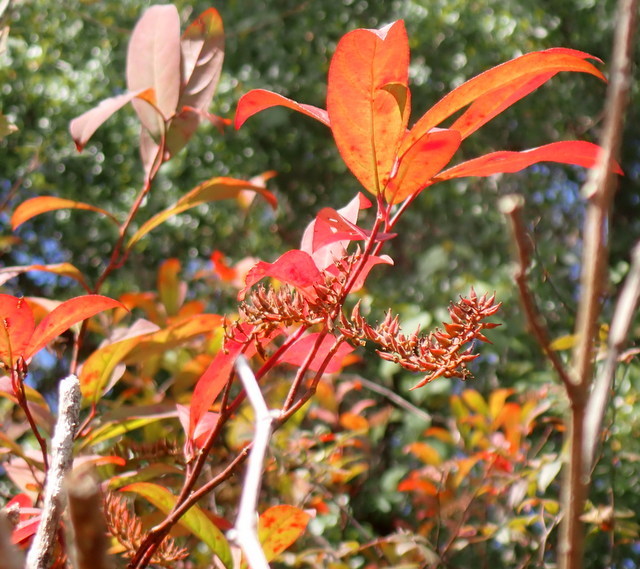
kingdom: Plantae
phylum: Tracheophyta
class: Magnoliopsida
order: Saxifragales
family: Iteaceae
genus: Itea
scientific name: Itea virginica
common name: Sweetspire
